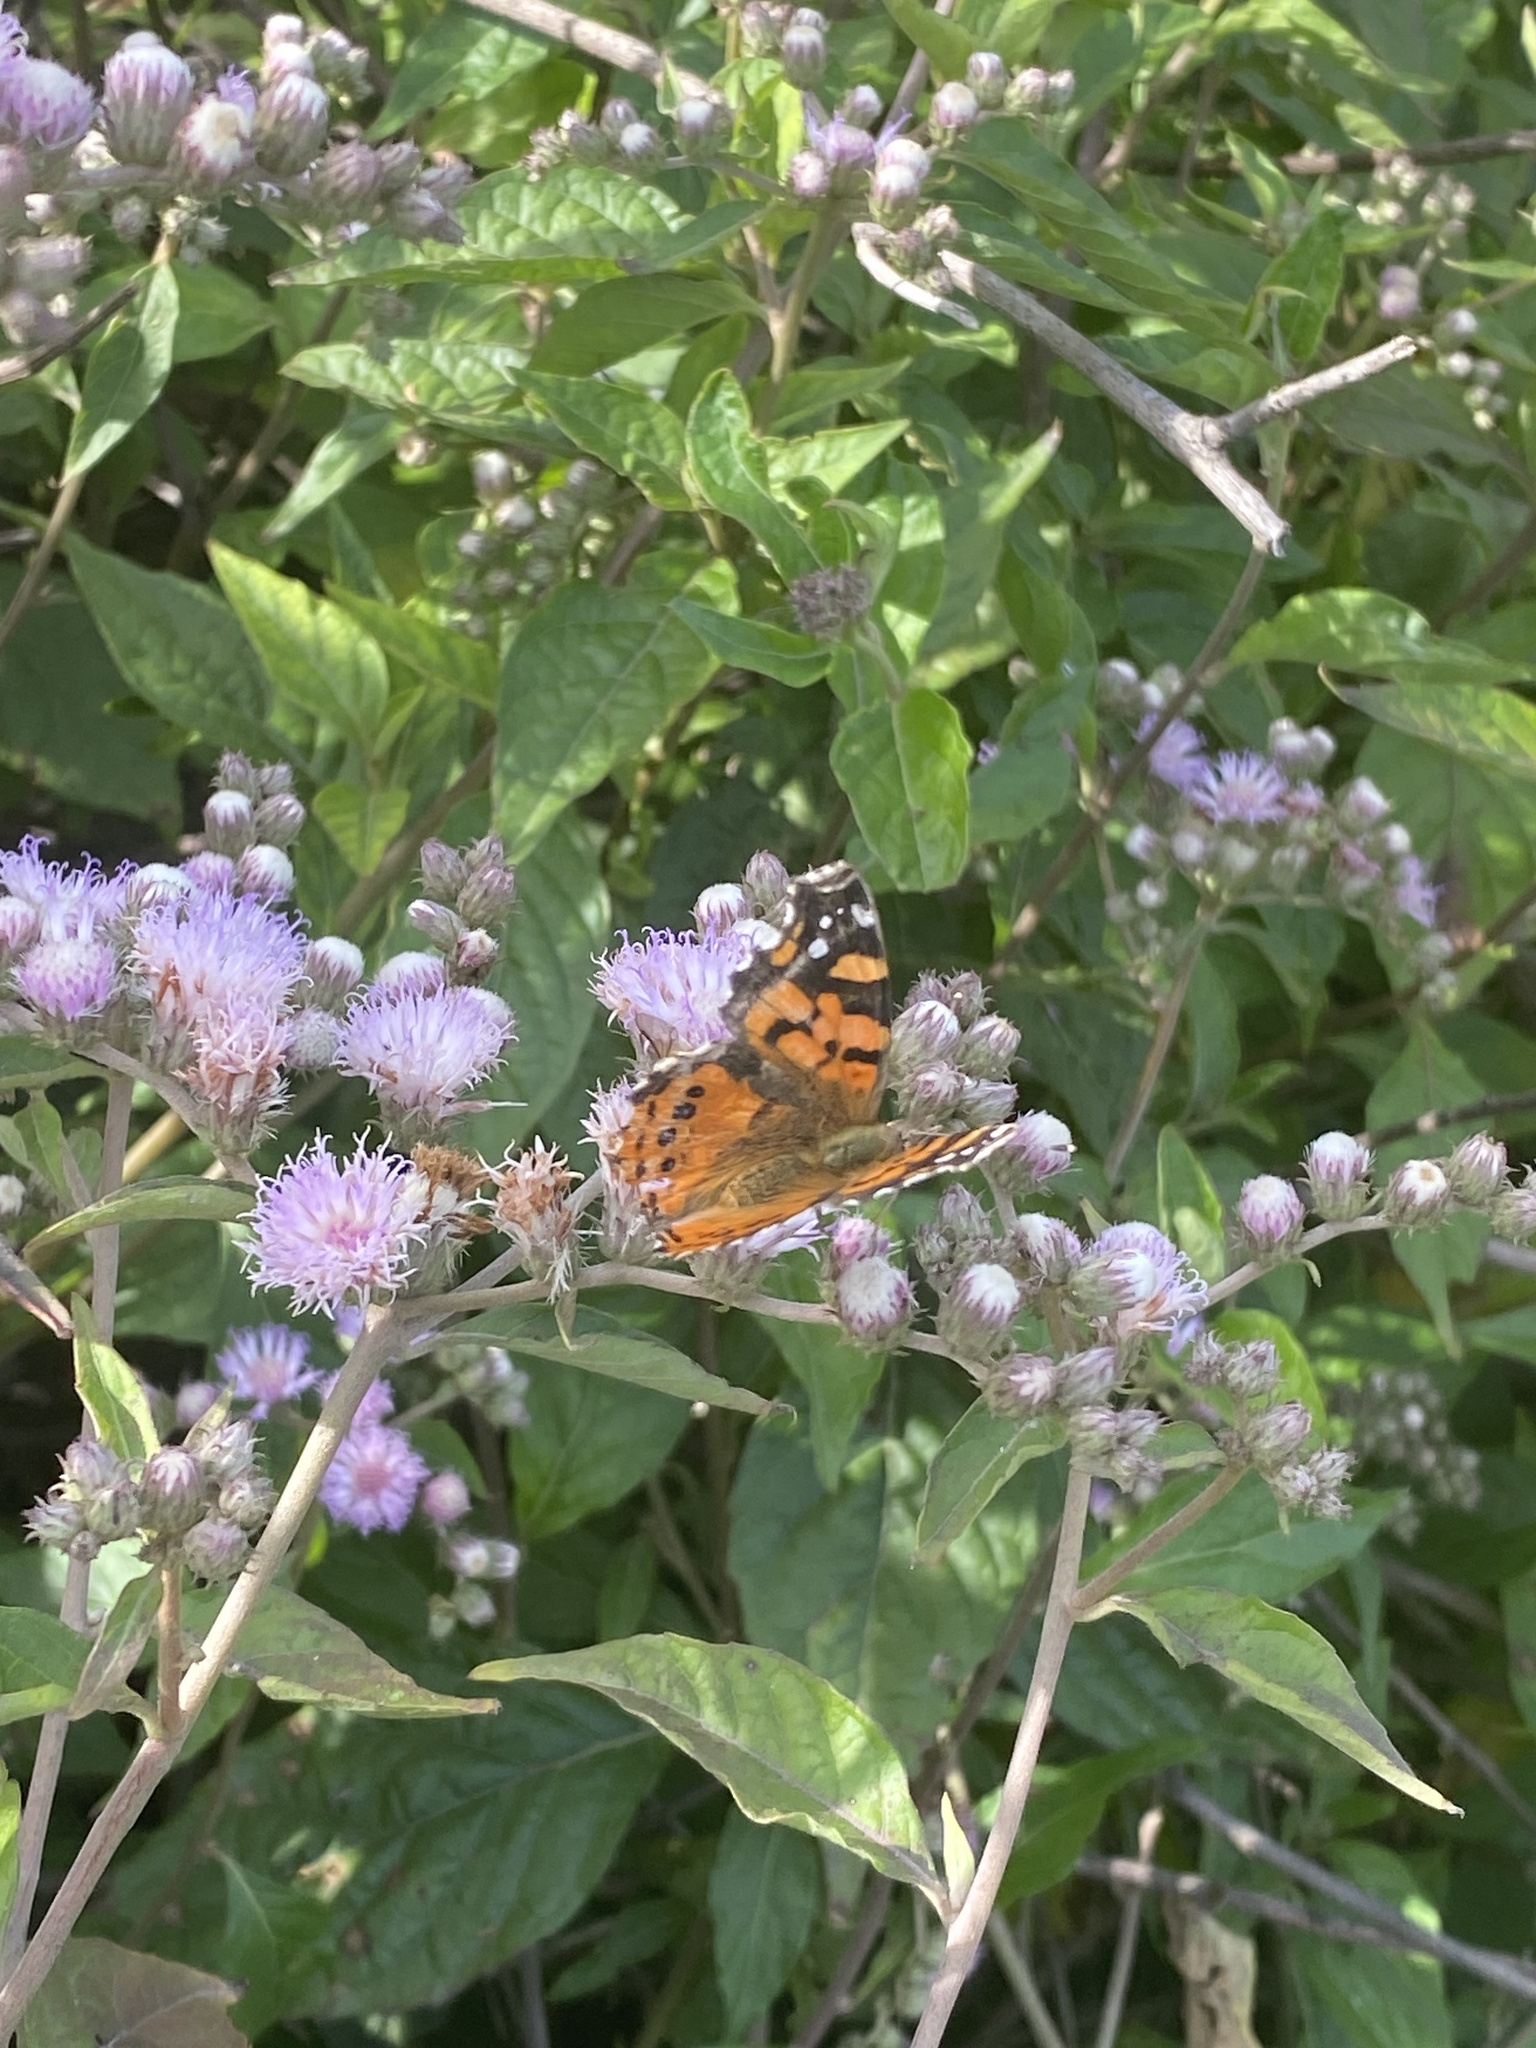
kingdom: Animalia
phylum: Arthropoda
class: Insecta
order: Lepidoptera
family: Nymphalidae
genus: Vanessa
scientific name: Vanessa carye
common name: Subtropical lady
